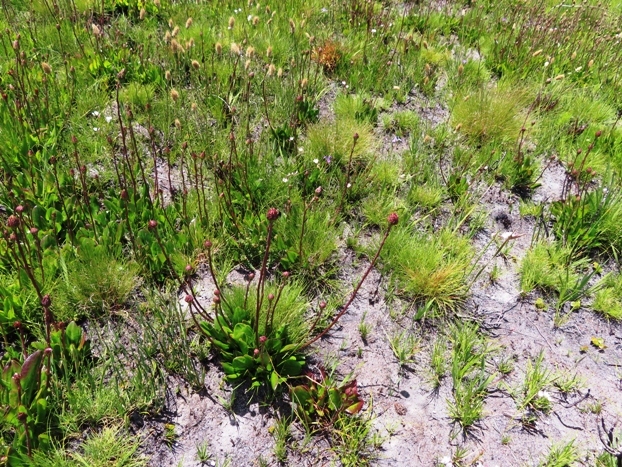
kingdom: Plantae
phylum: Tracheophyta
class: Magnoliopsida
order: Asterales
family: Asteraceae
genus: Gerbera
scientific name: Gerbera crocea
